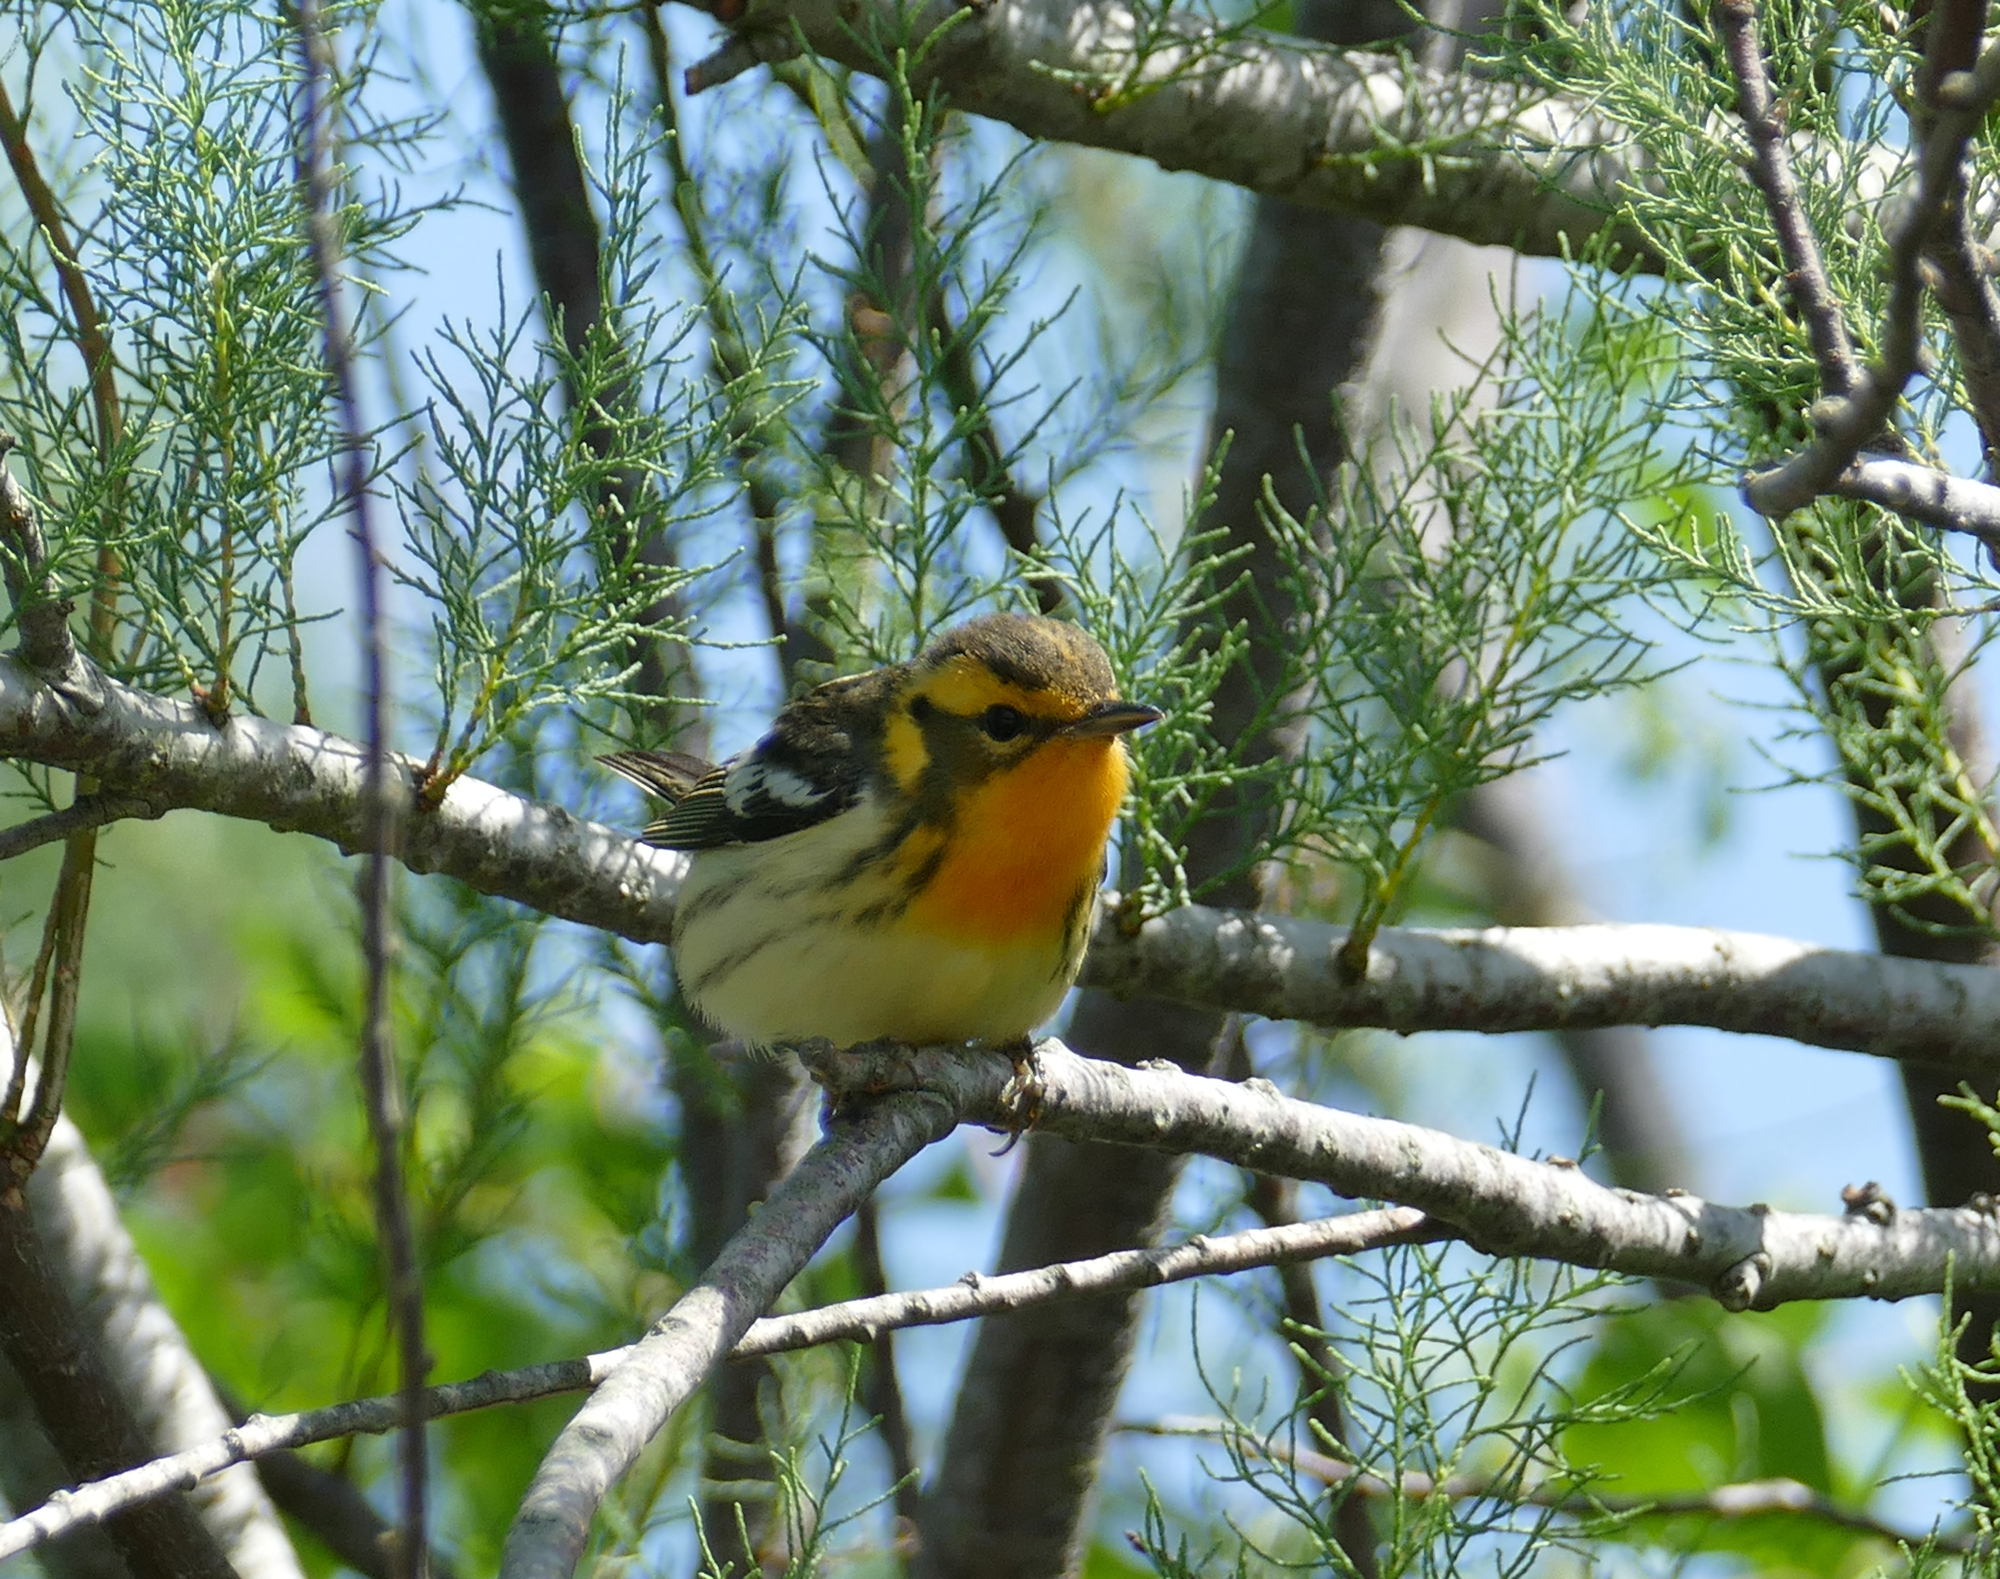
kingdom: Animalia
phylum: Chordata
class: Aves
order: Passeriformes
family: Parulidae
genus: Setophaga
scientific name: Setophaga fusca
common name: Blackburnian warbler
